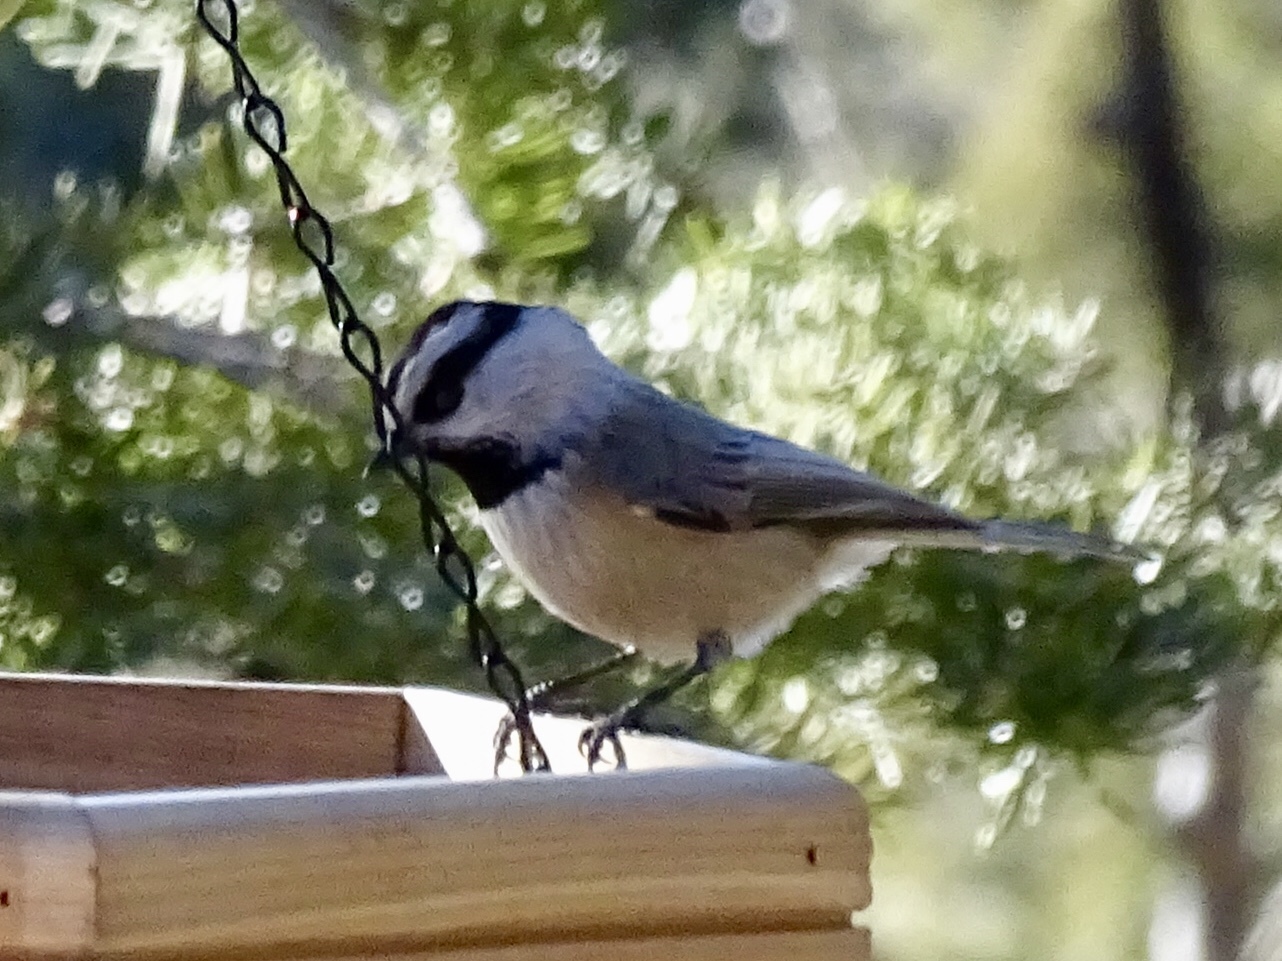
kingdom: Animalia
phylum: Chordata
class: Aves
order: Passeriformes
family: Paridae
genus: Poecile
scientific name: Poecile gambeli
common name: Mountain chickadee
